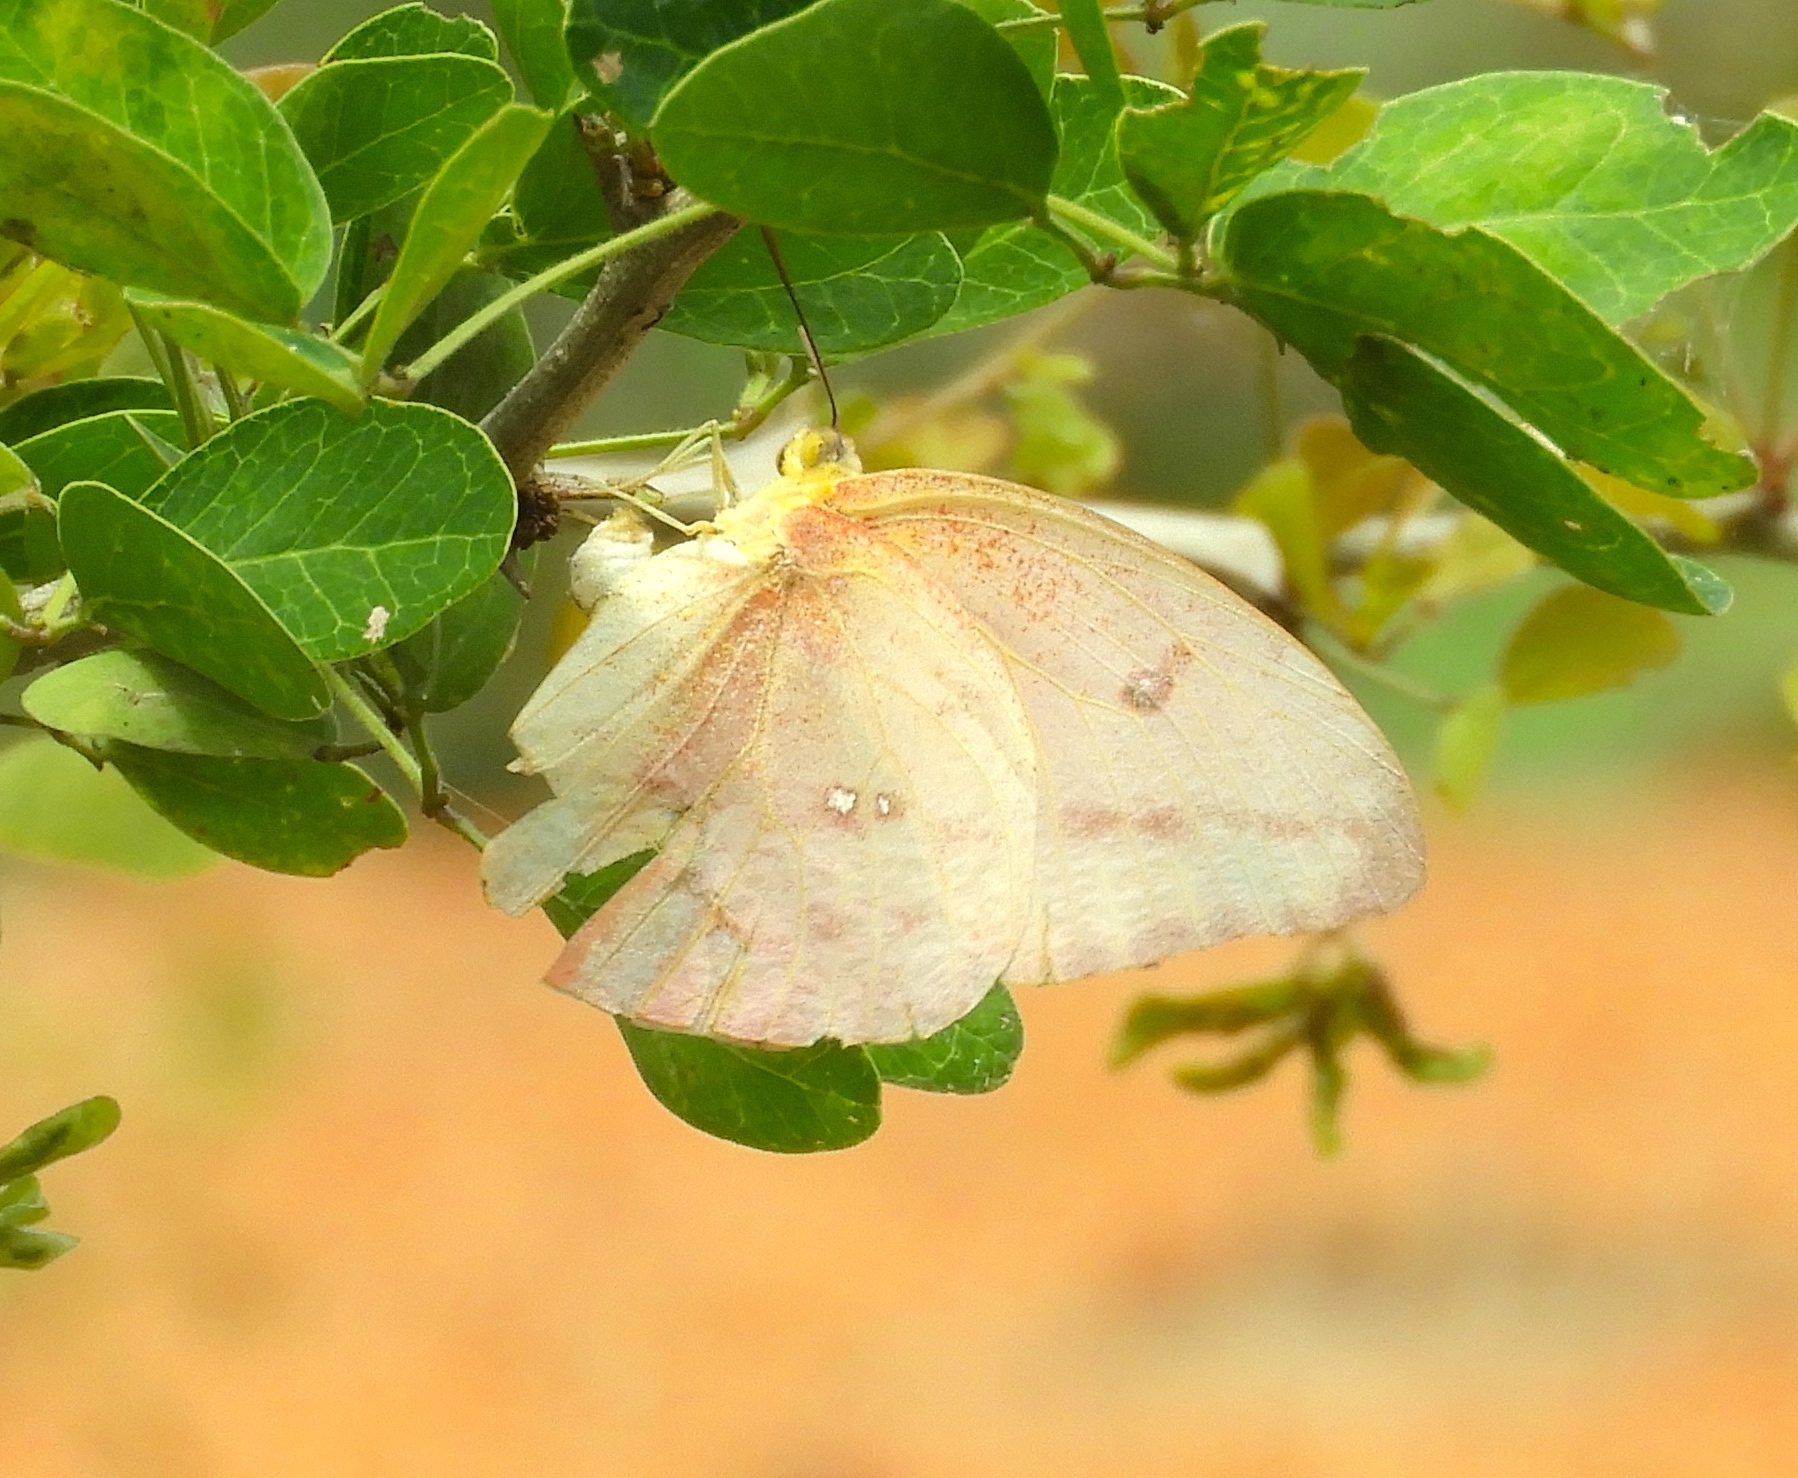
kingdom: Animalia
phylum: Arthropoda
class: Insecta
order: Lepidoptera
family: Pieridae
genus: Phoebis
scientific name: Phoebis agarithe
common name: Large orange sulphur
